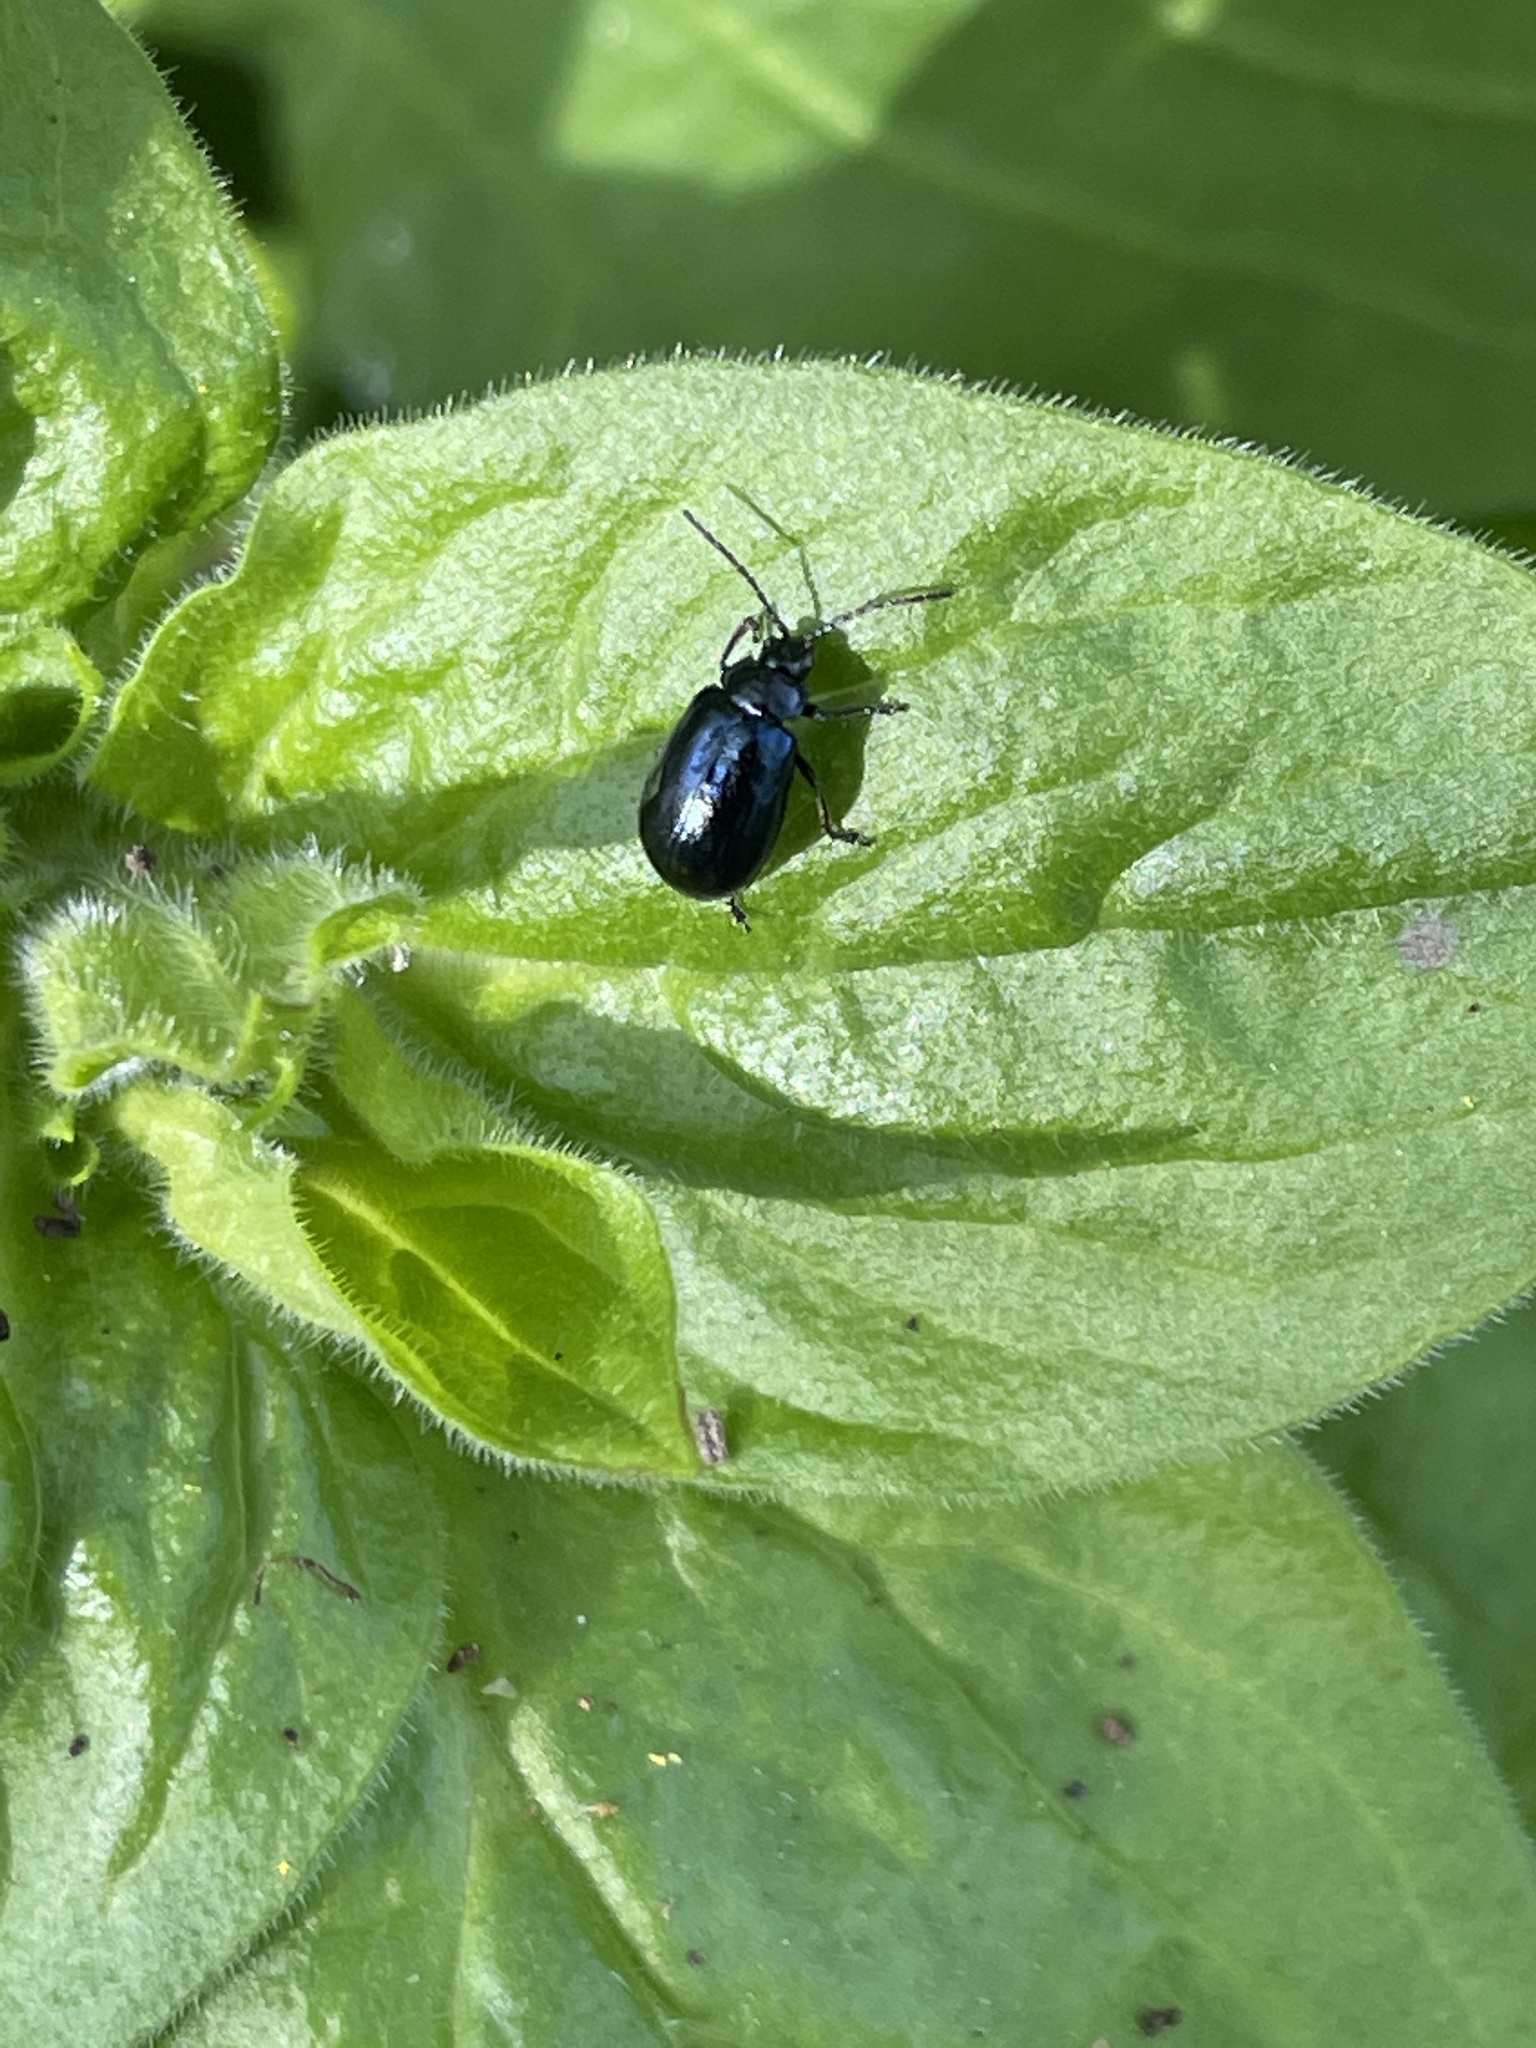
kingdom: Animalia
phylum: Arthropoda
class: Insecta
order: Coleoptera
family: Chrysomelidae
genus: Agelastica
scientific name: Agelastica alni
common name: Alder leaf beetle
